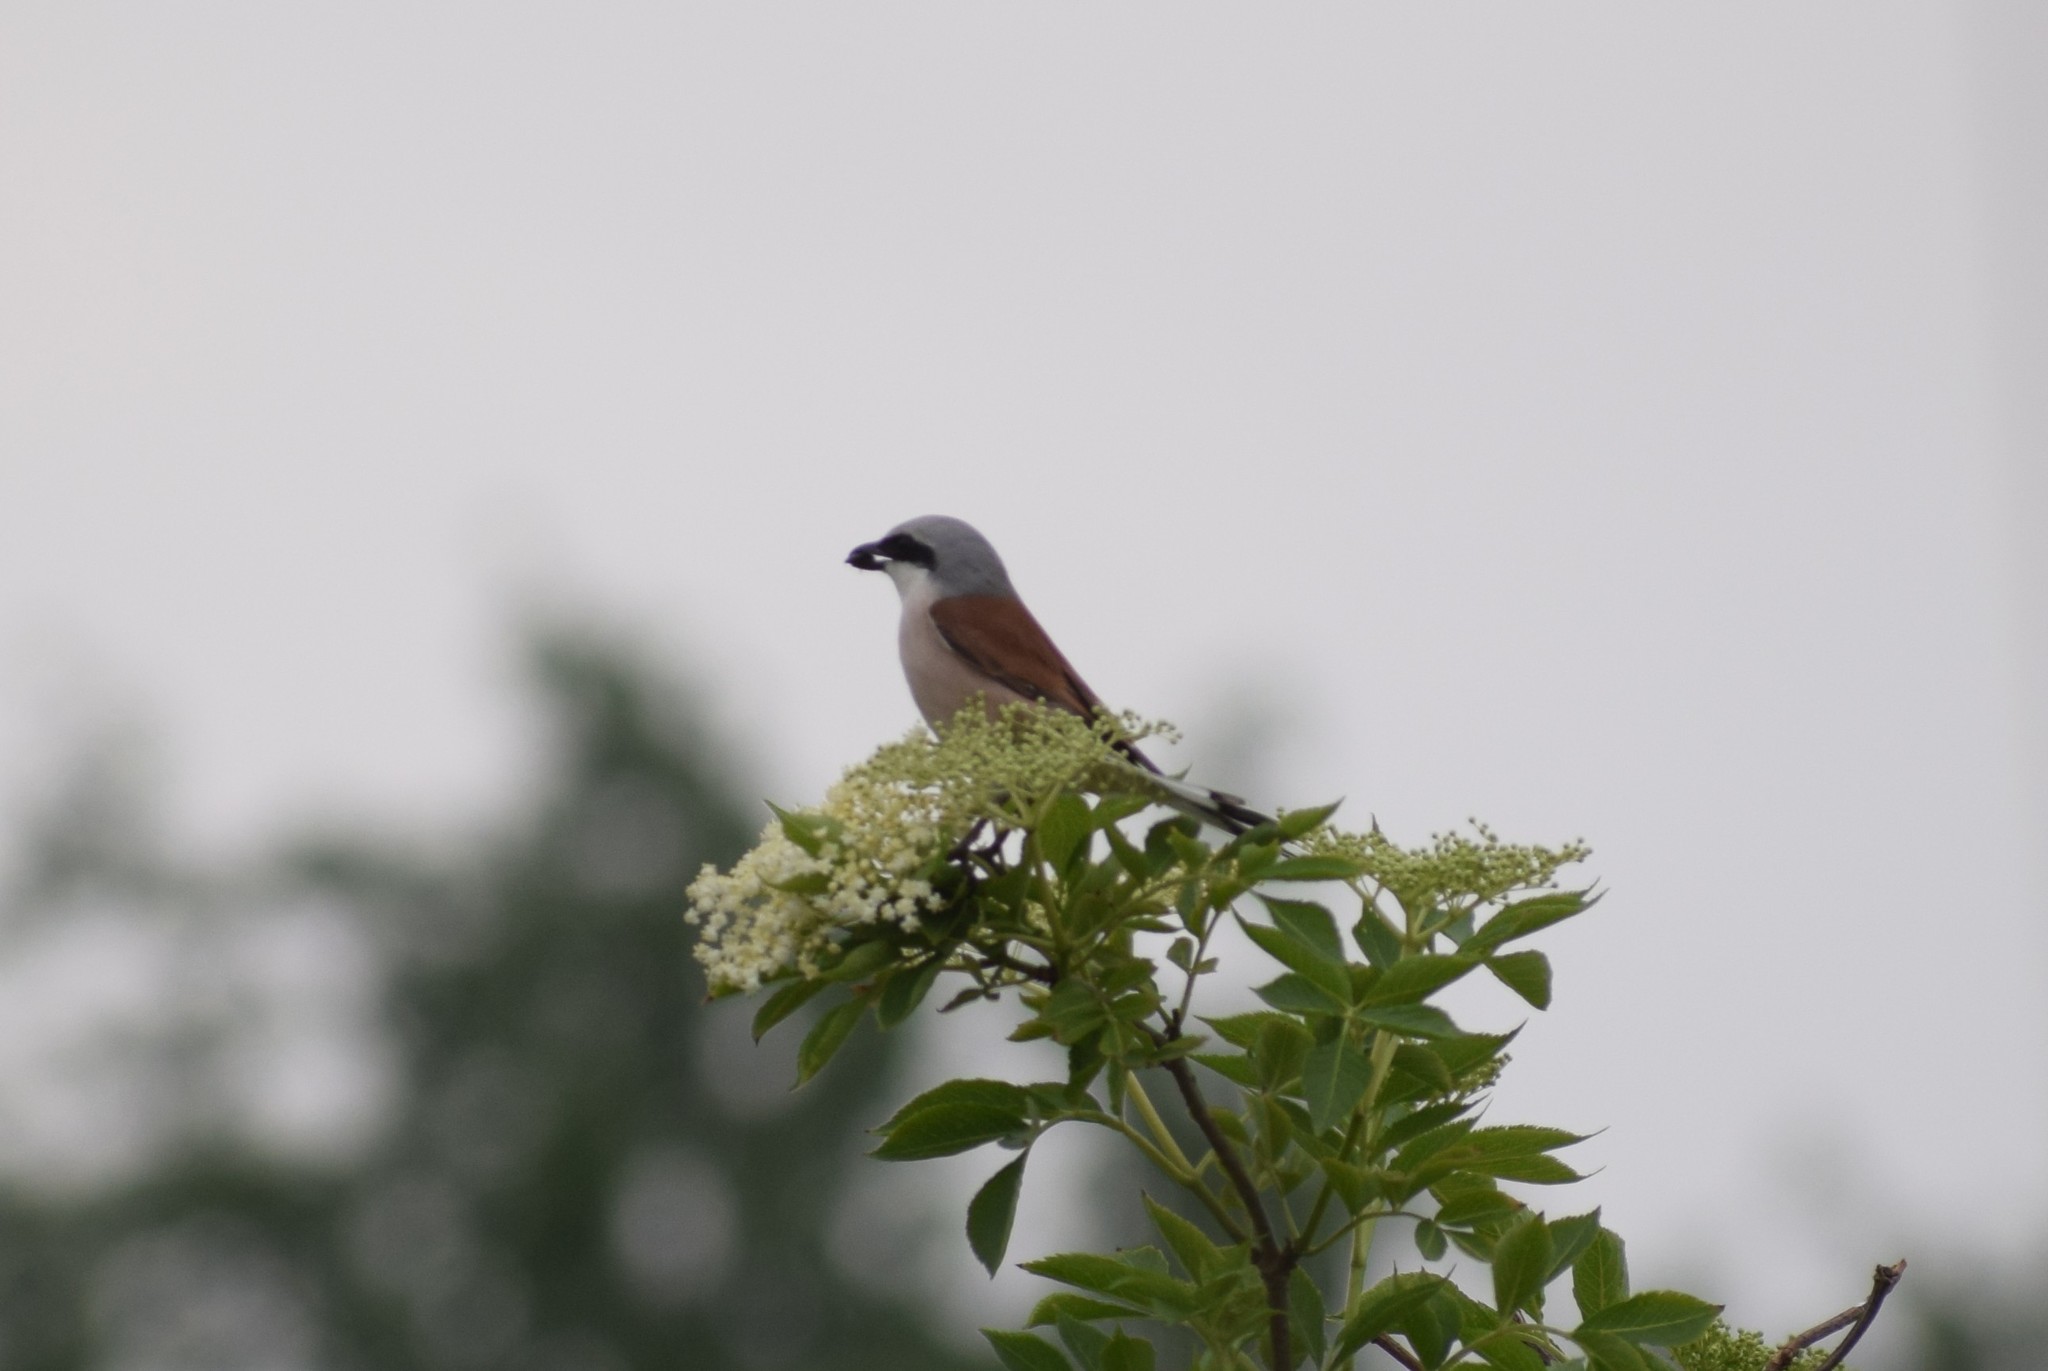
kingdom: Animalia
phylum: Chordata
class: Aves
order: Passeriformes
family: Laniidae
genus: Lanius
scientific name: Lanius collurio
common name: Red-backed shrike
